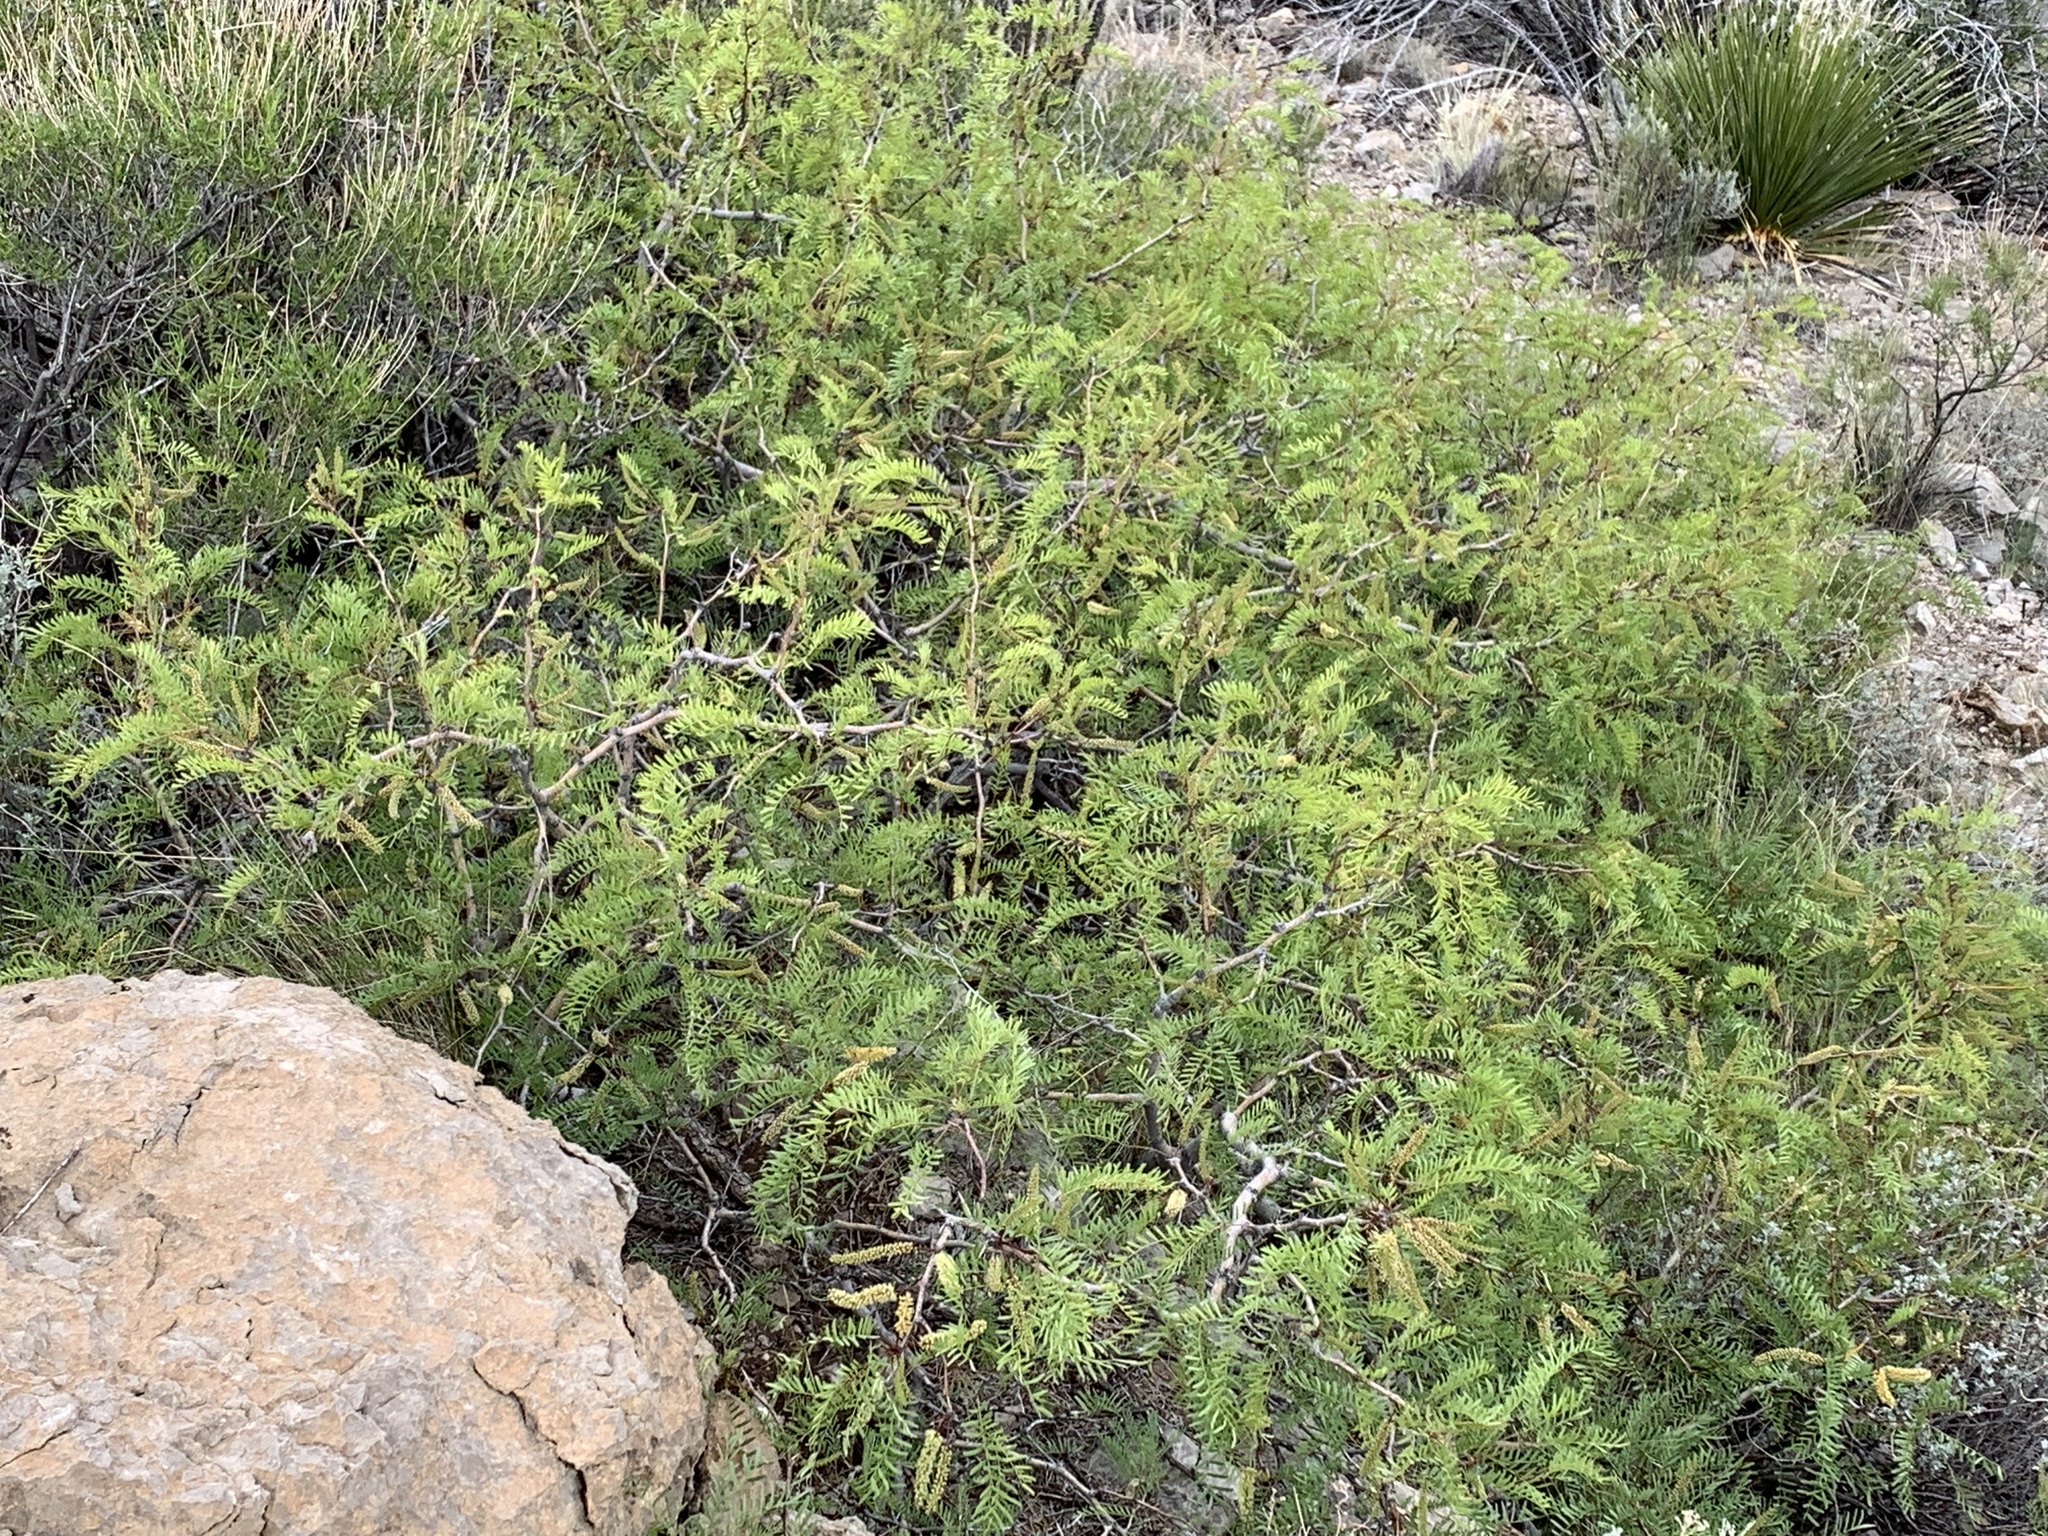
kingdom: Plantae
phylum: Tracheophyta
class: Magnoliopsida
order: Fabales
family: Fabaceae
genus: Prosopis
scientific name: Prosopis glandulosa
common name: Honey mesquite
